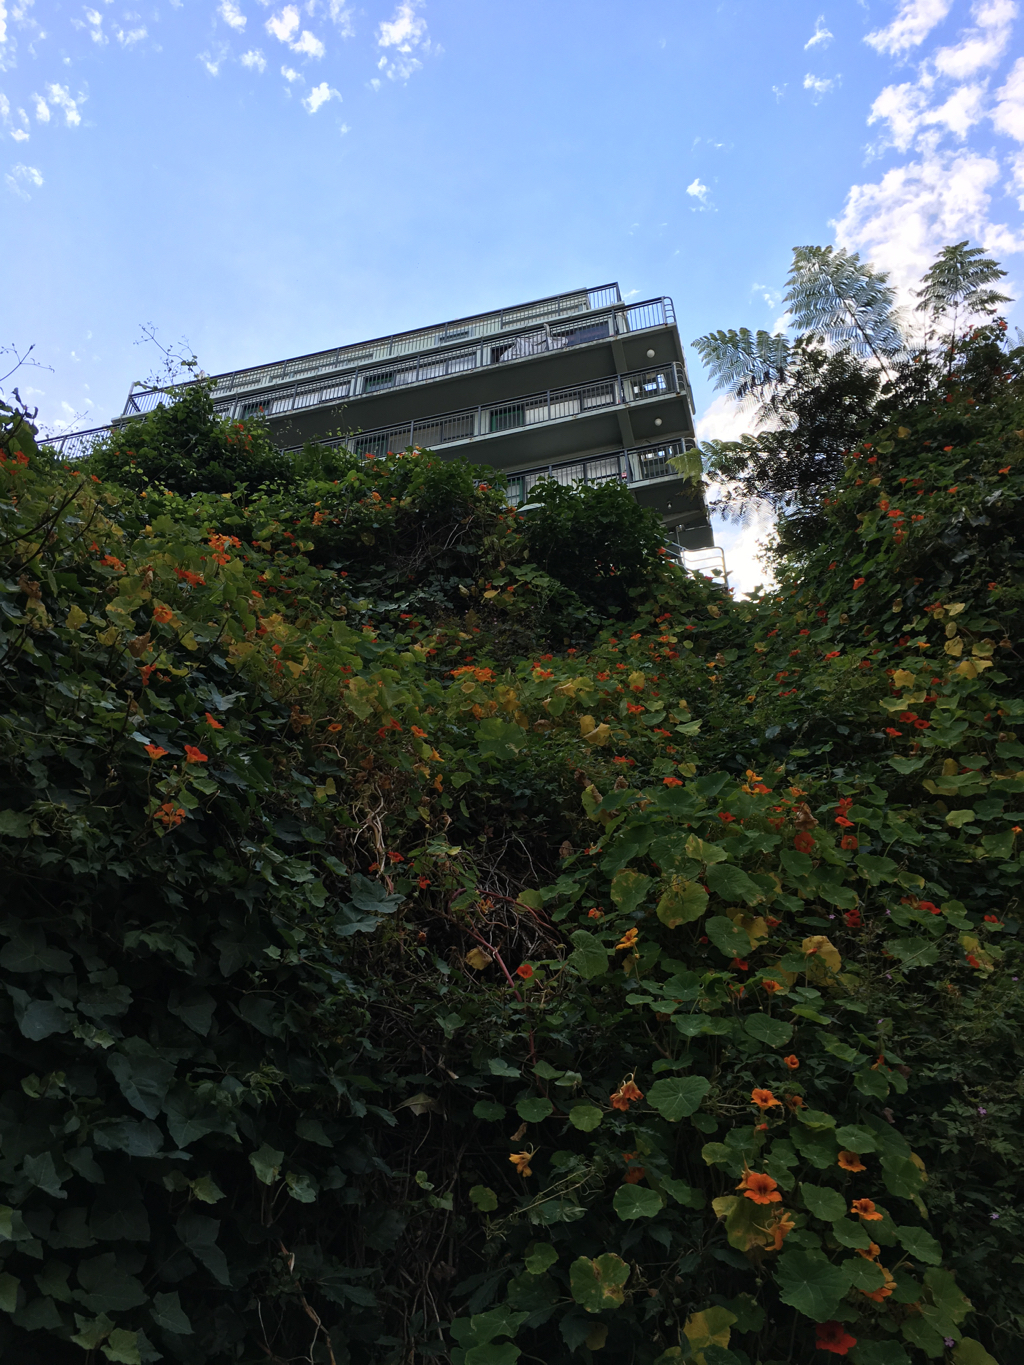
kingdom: Plantae
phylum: Tracheophyta
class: Magnoliopsida
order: Brassicales
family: Tropaeolaceae
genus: Tropaeolum
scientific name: Tropaeolum majus
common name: Nasturtium
